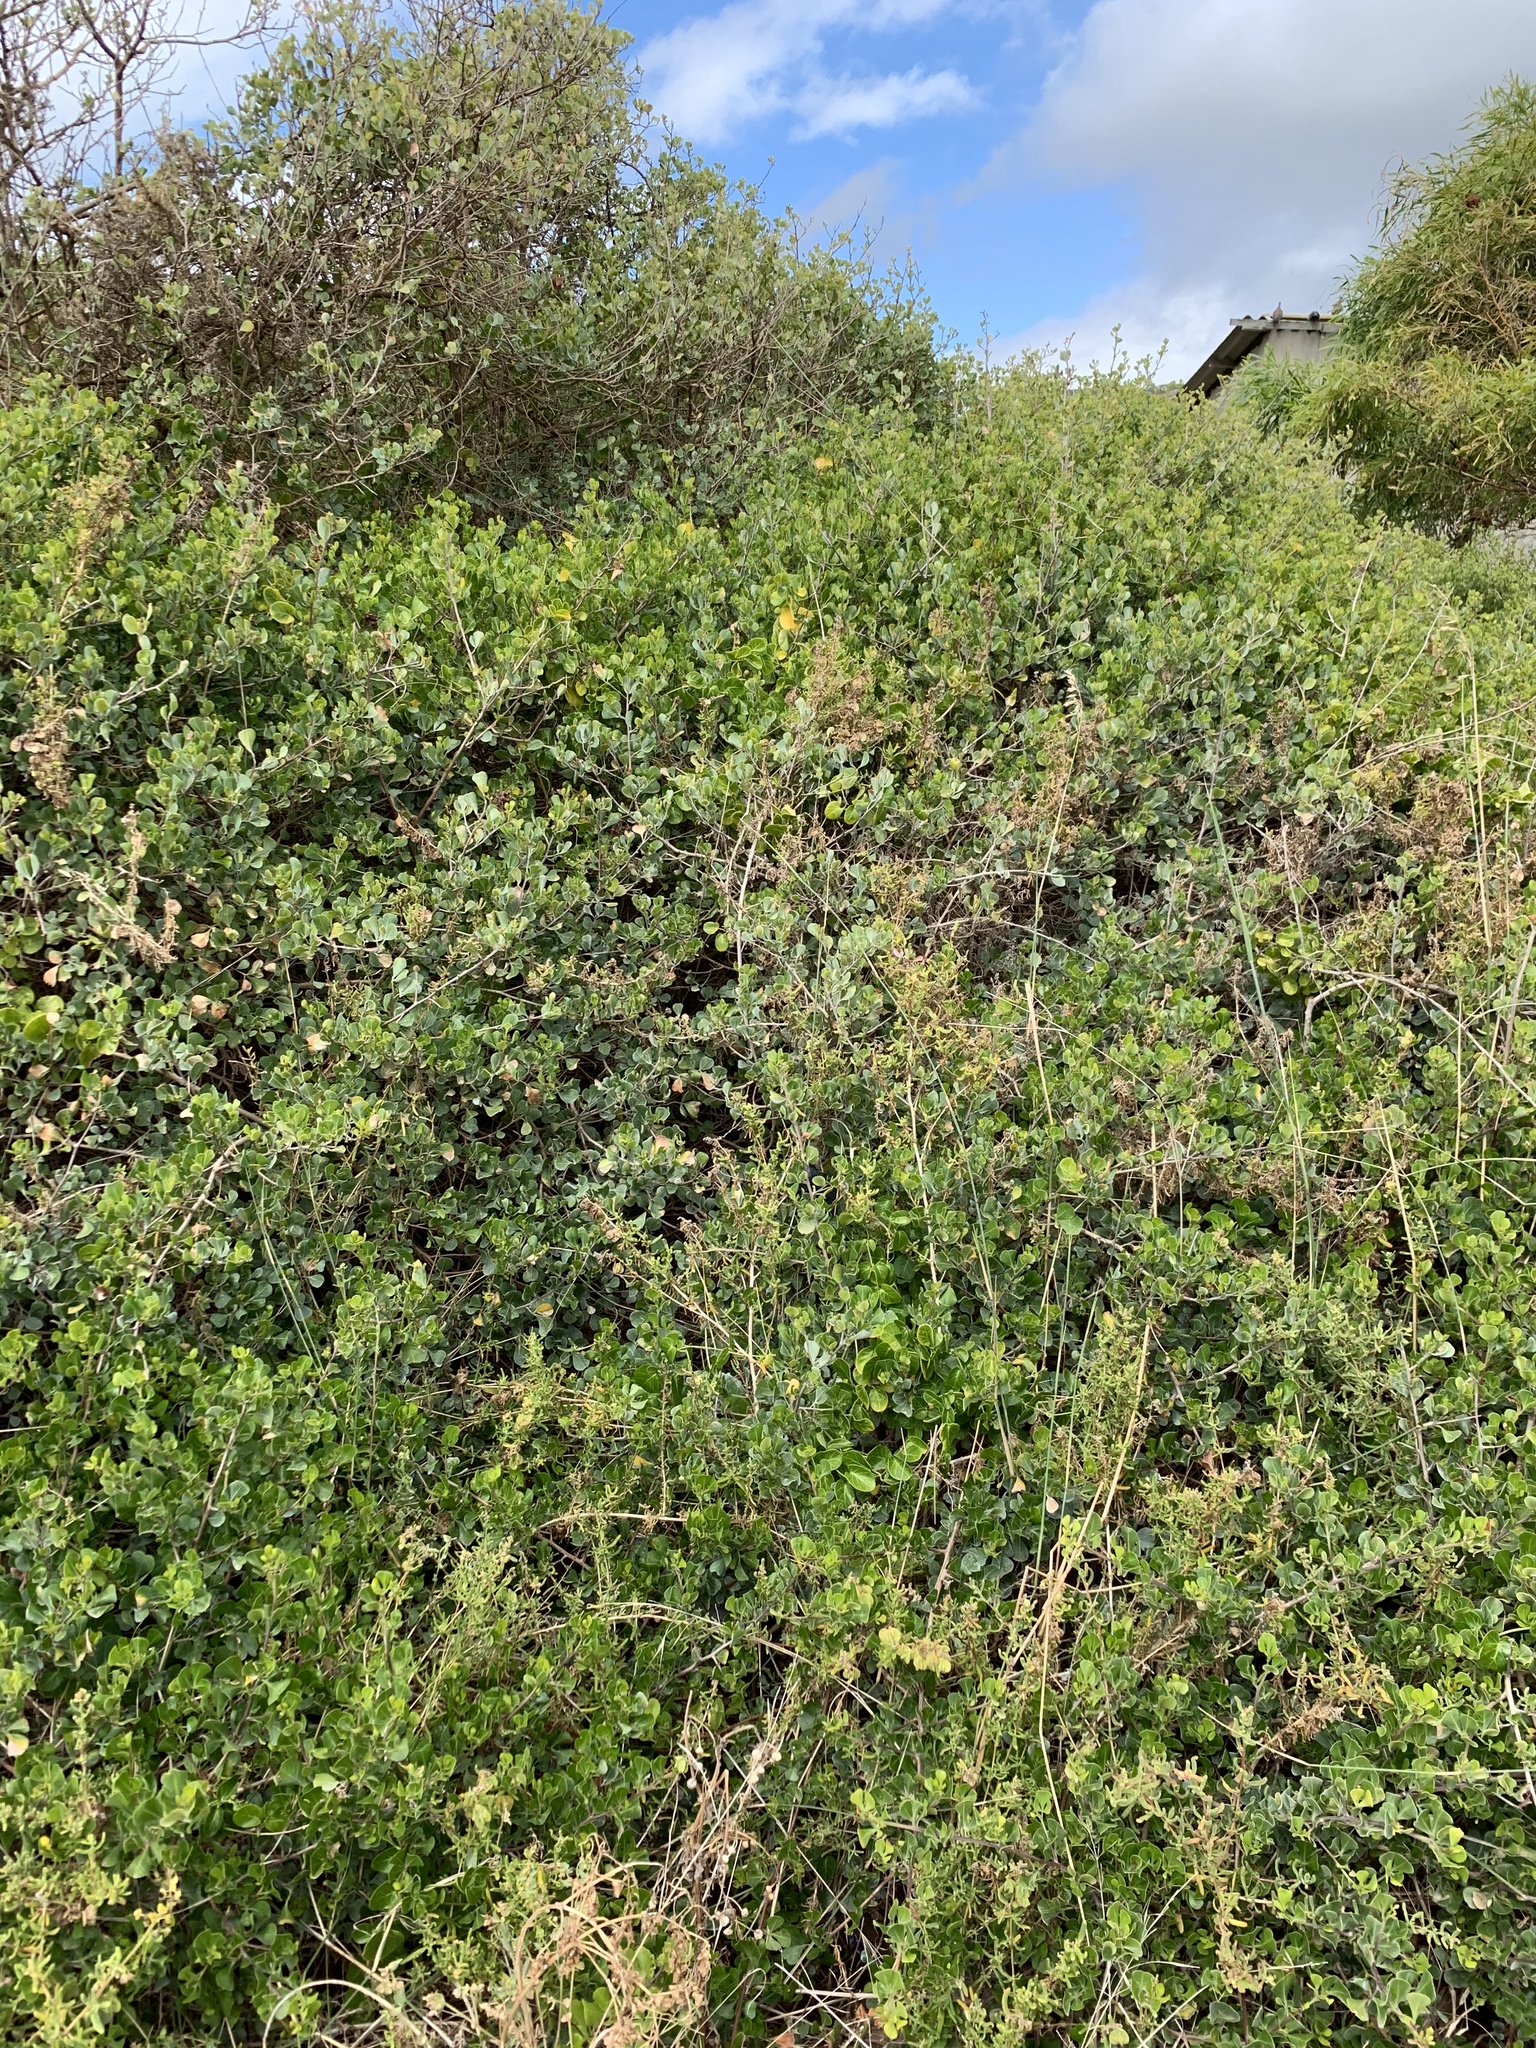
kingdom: Plantae
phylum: Tracheophyta
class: Magnoliopsida
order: Sapindales
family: Anacardiaceae
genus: Searsia
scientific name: Searsia glauca
